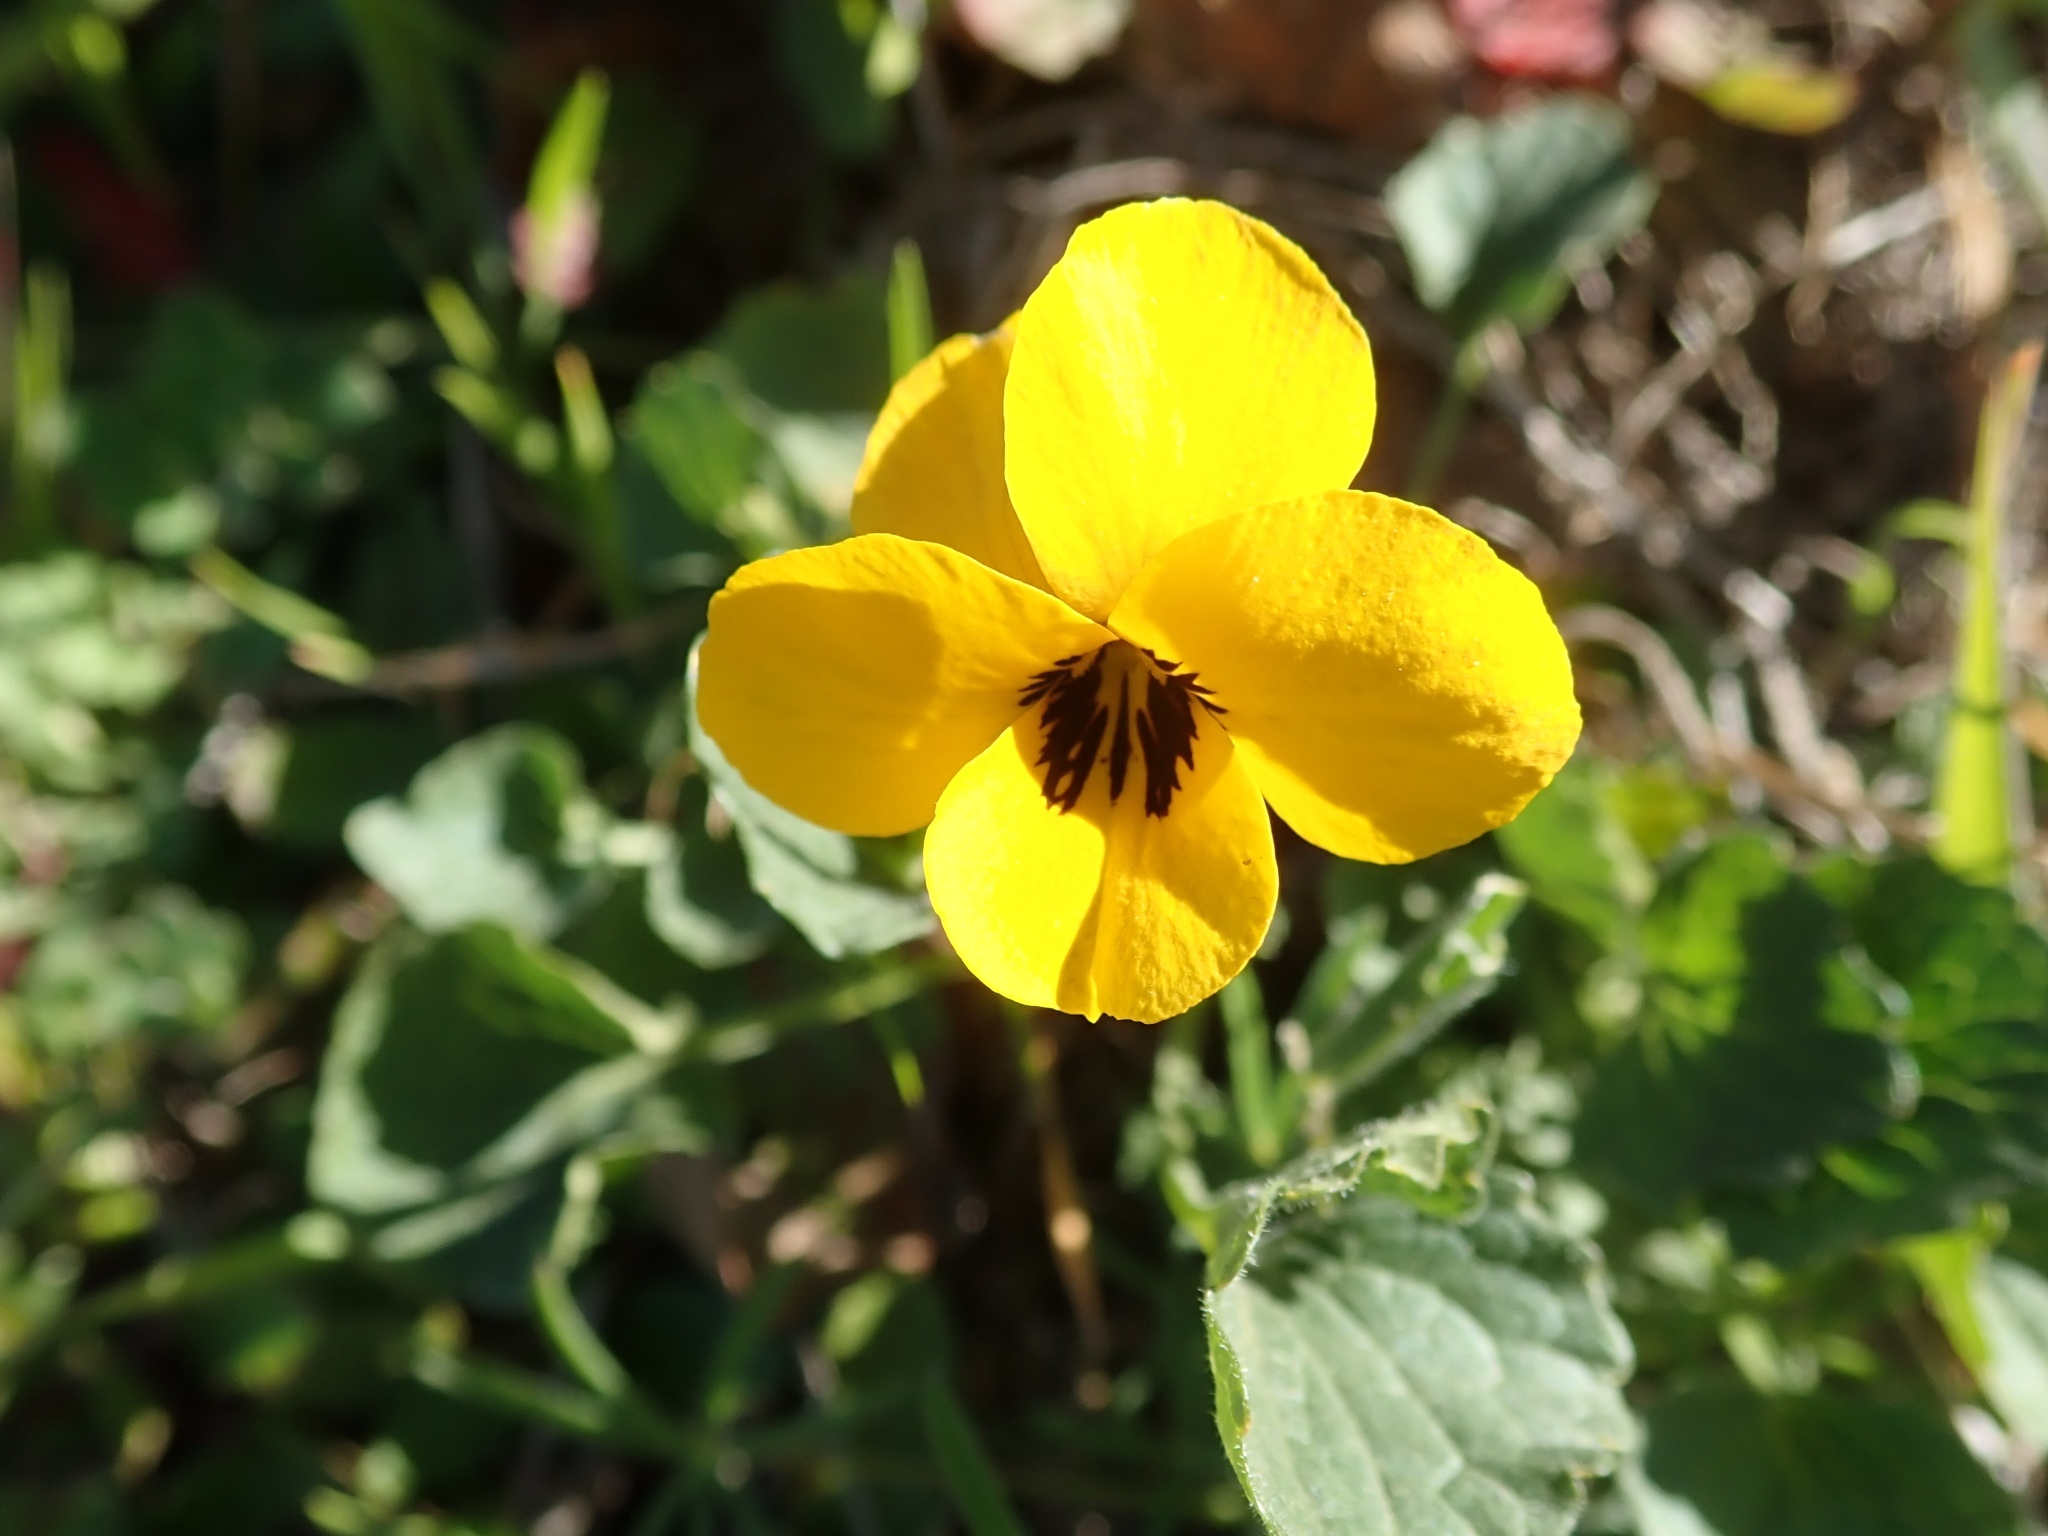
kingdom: Plantae
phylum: Tracheophyta
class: Magnoliopsida
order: Malpighiales
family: Violaceae
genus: Viola
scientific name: Viola pedunculata
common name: California golden violet
